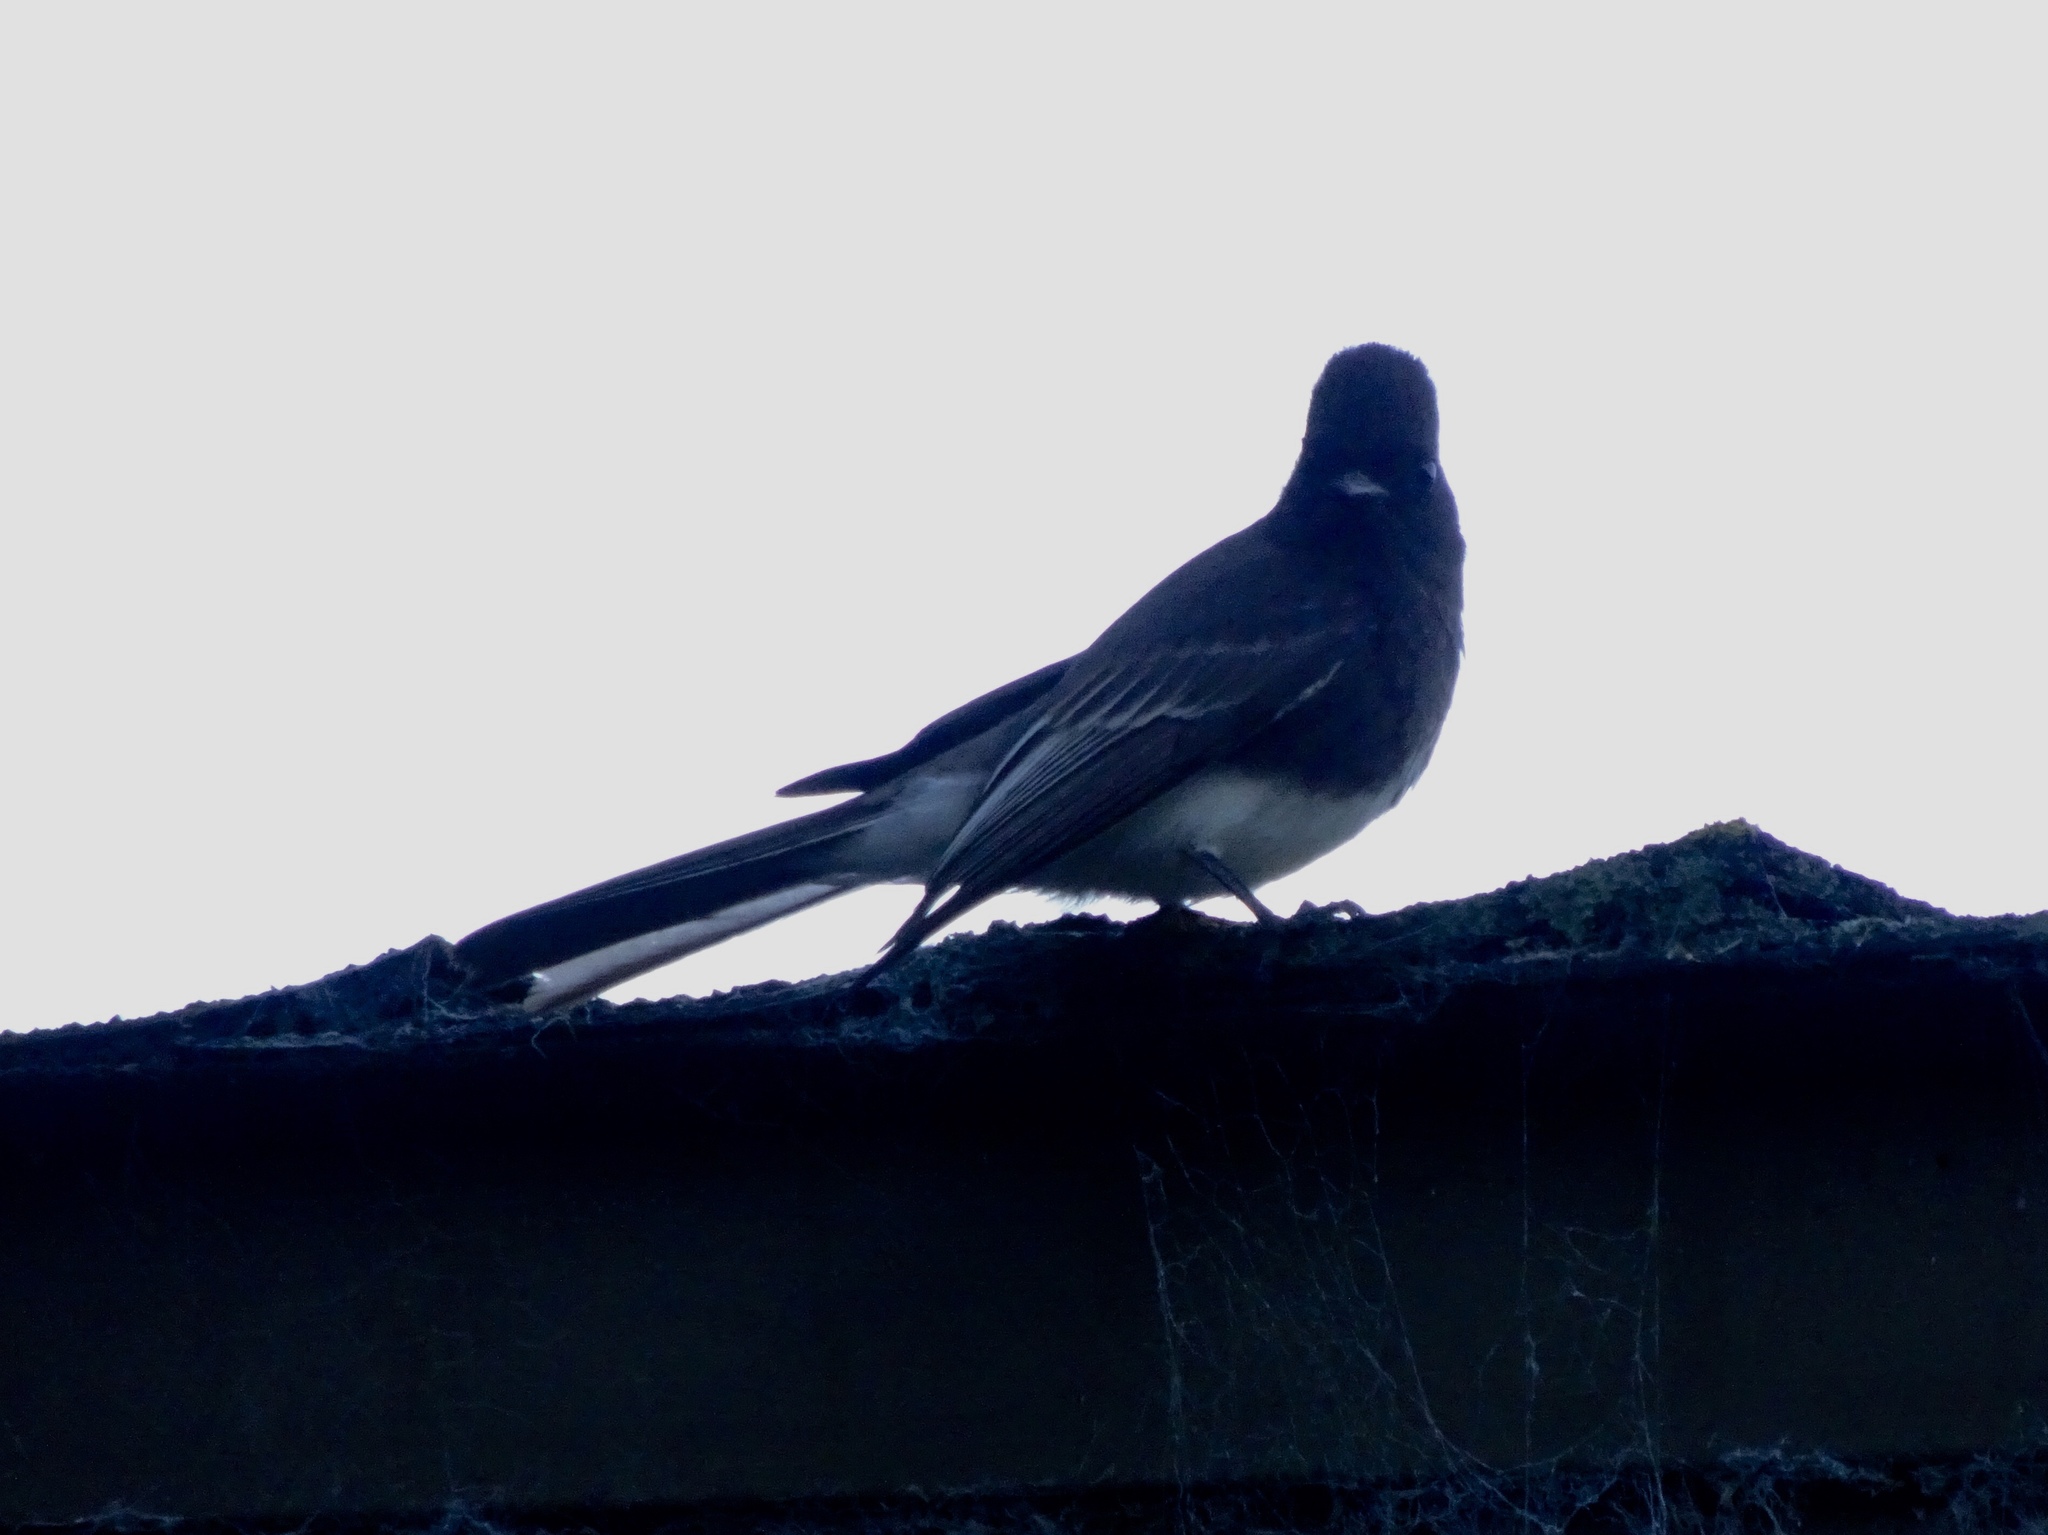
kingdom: Animalia
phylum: Chordata
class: Aves
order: Passeriformes
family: Tyrannidae
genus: Sayornis
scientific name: Sayornis nigricans
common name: Black phoebe
